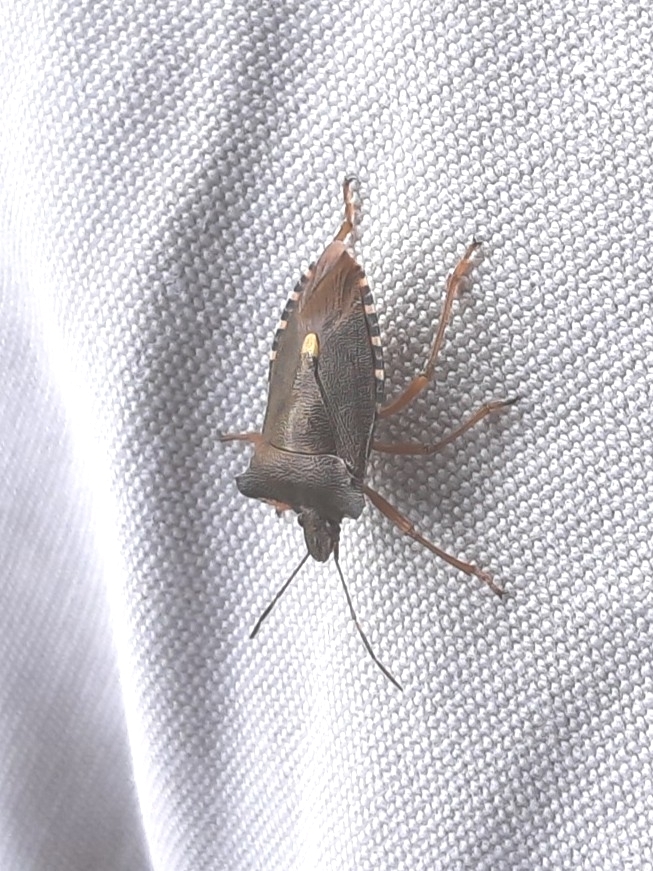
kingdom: Animalia
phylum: Arthropoda
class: Insecta
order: Hemiptera
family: Pentatomidae
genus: Pentatoma
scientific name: Pentatoma rufipes
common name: Forest bug
